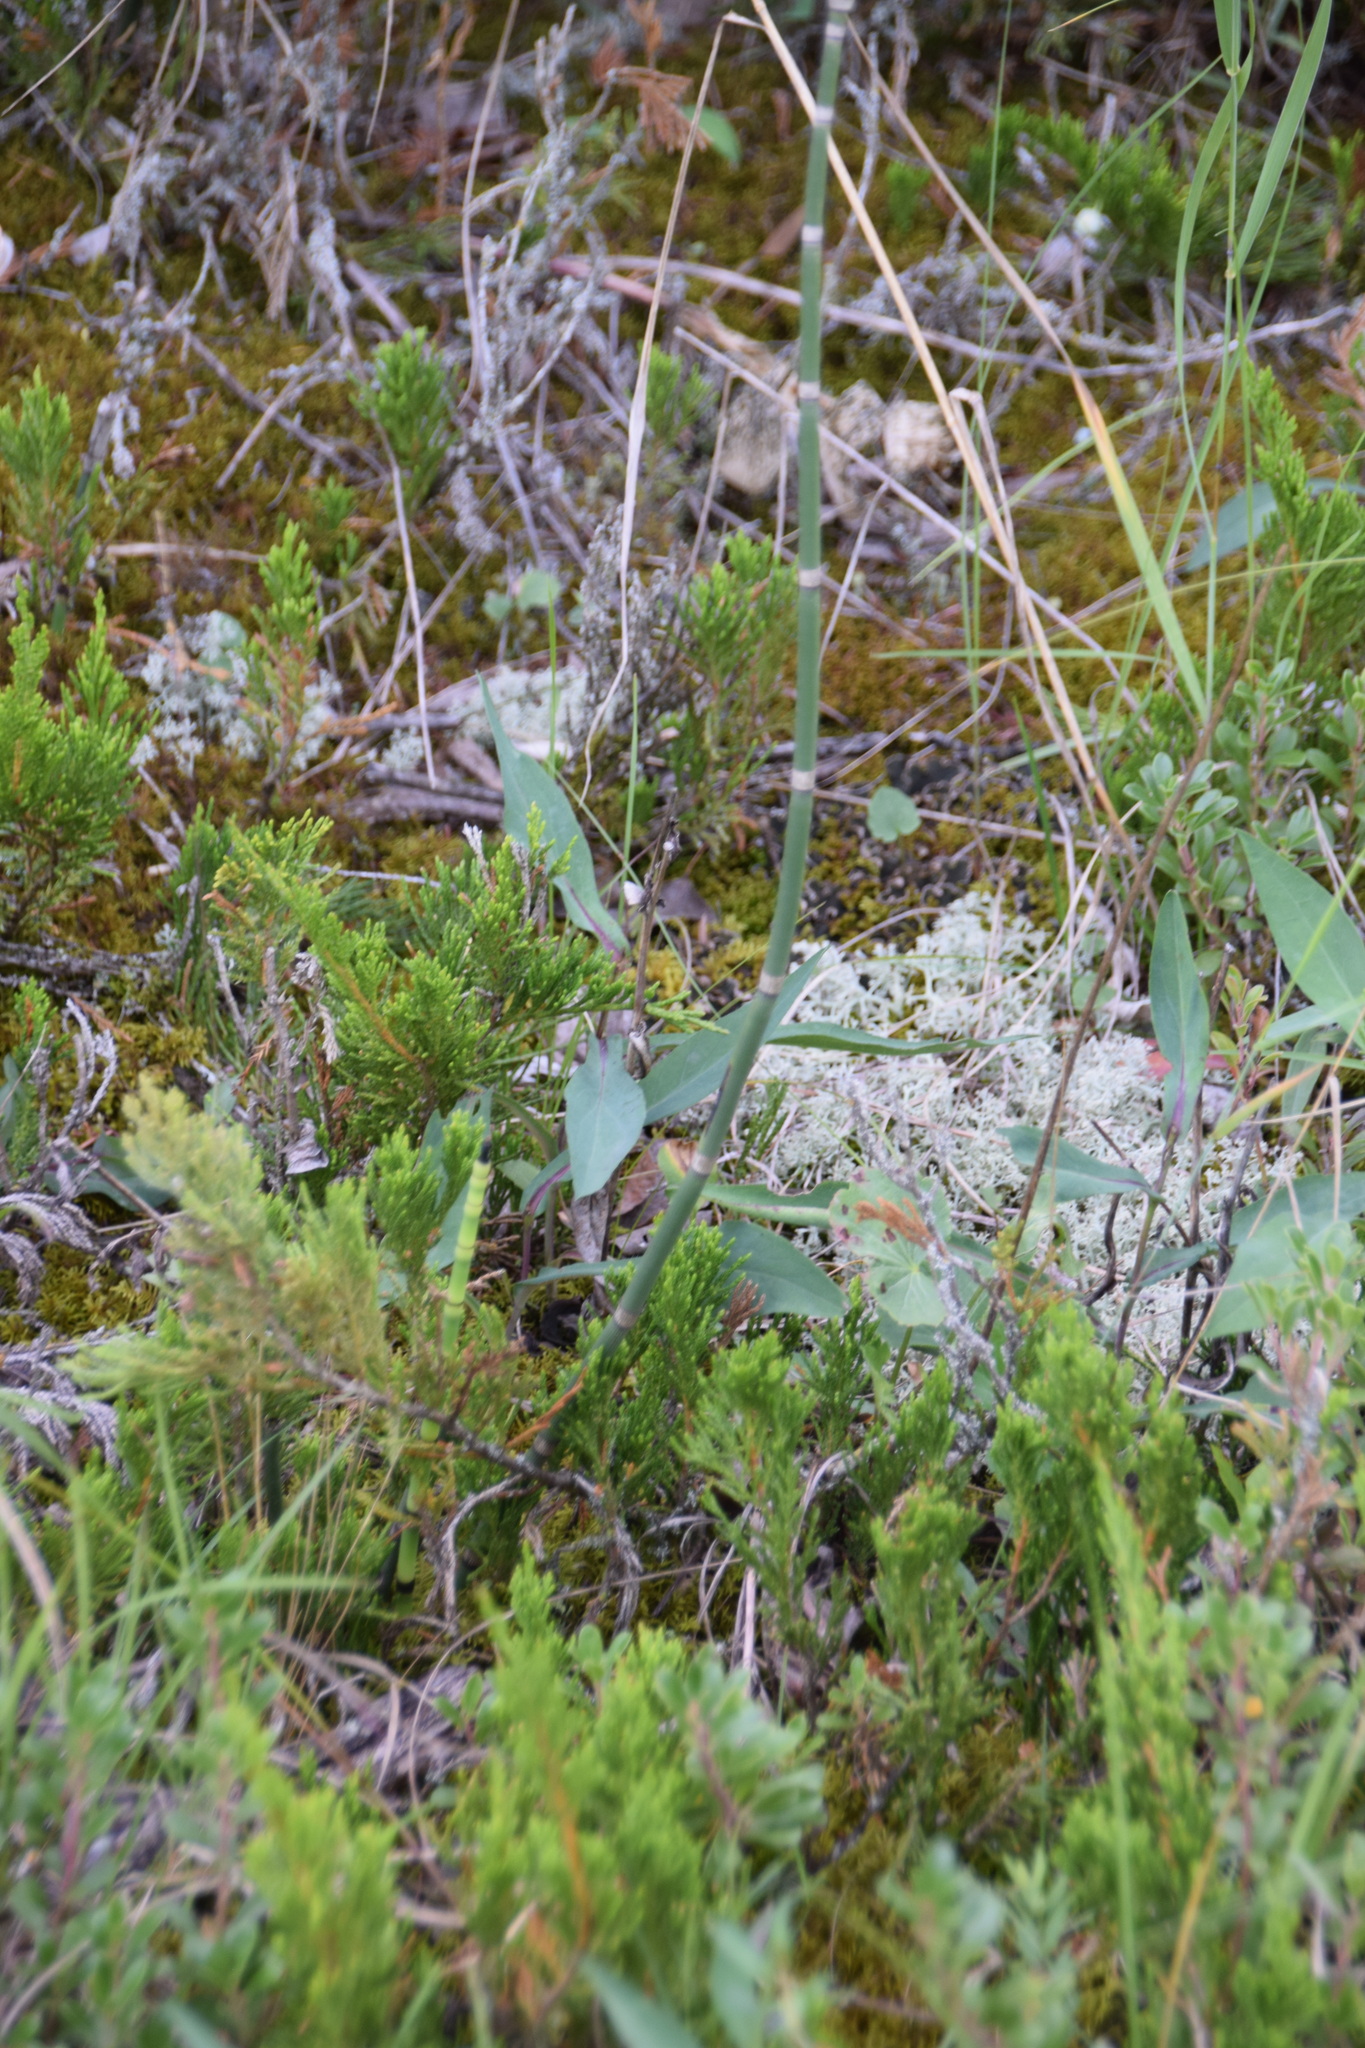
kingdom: Plantae
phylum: Tracheophyta
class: Polypodiopsida
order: Equisetales
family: Equisetaceae
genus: Equisetum
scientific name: Equisetum hyemale
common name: Rough horsetail
